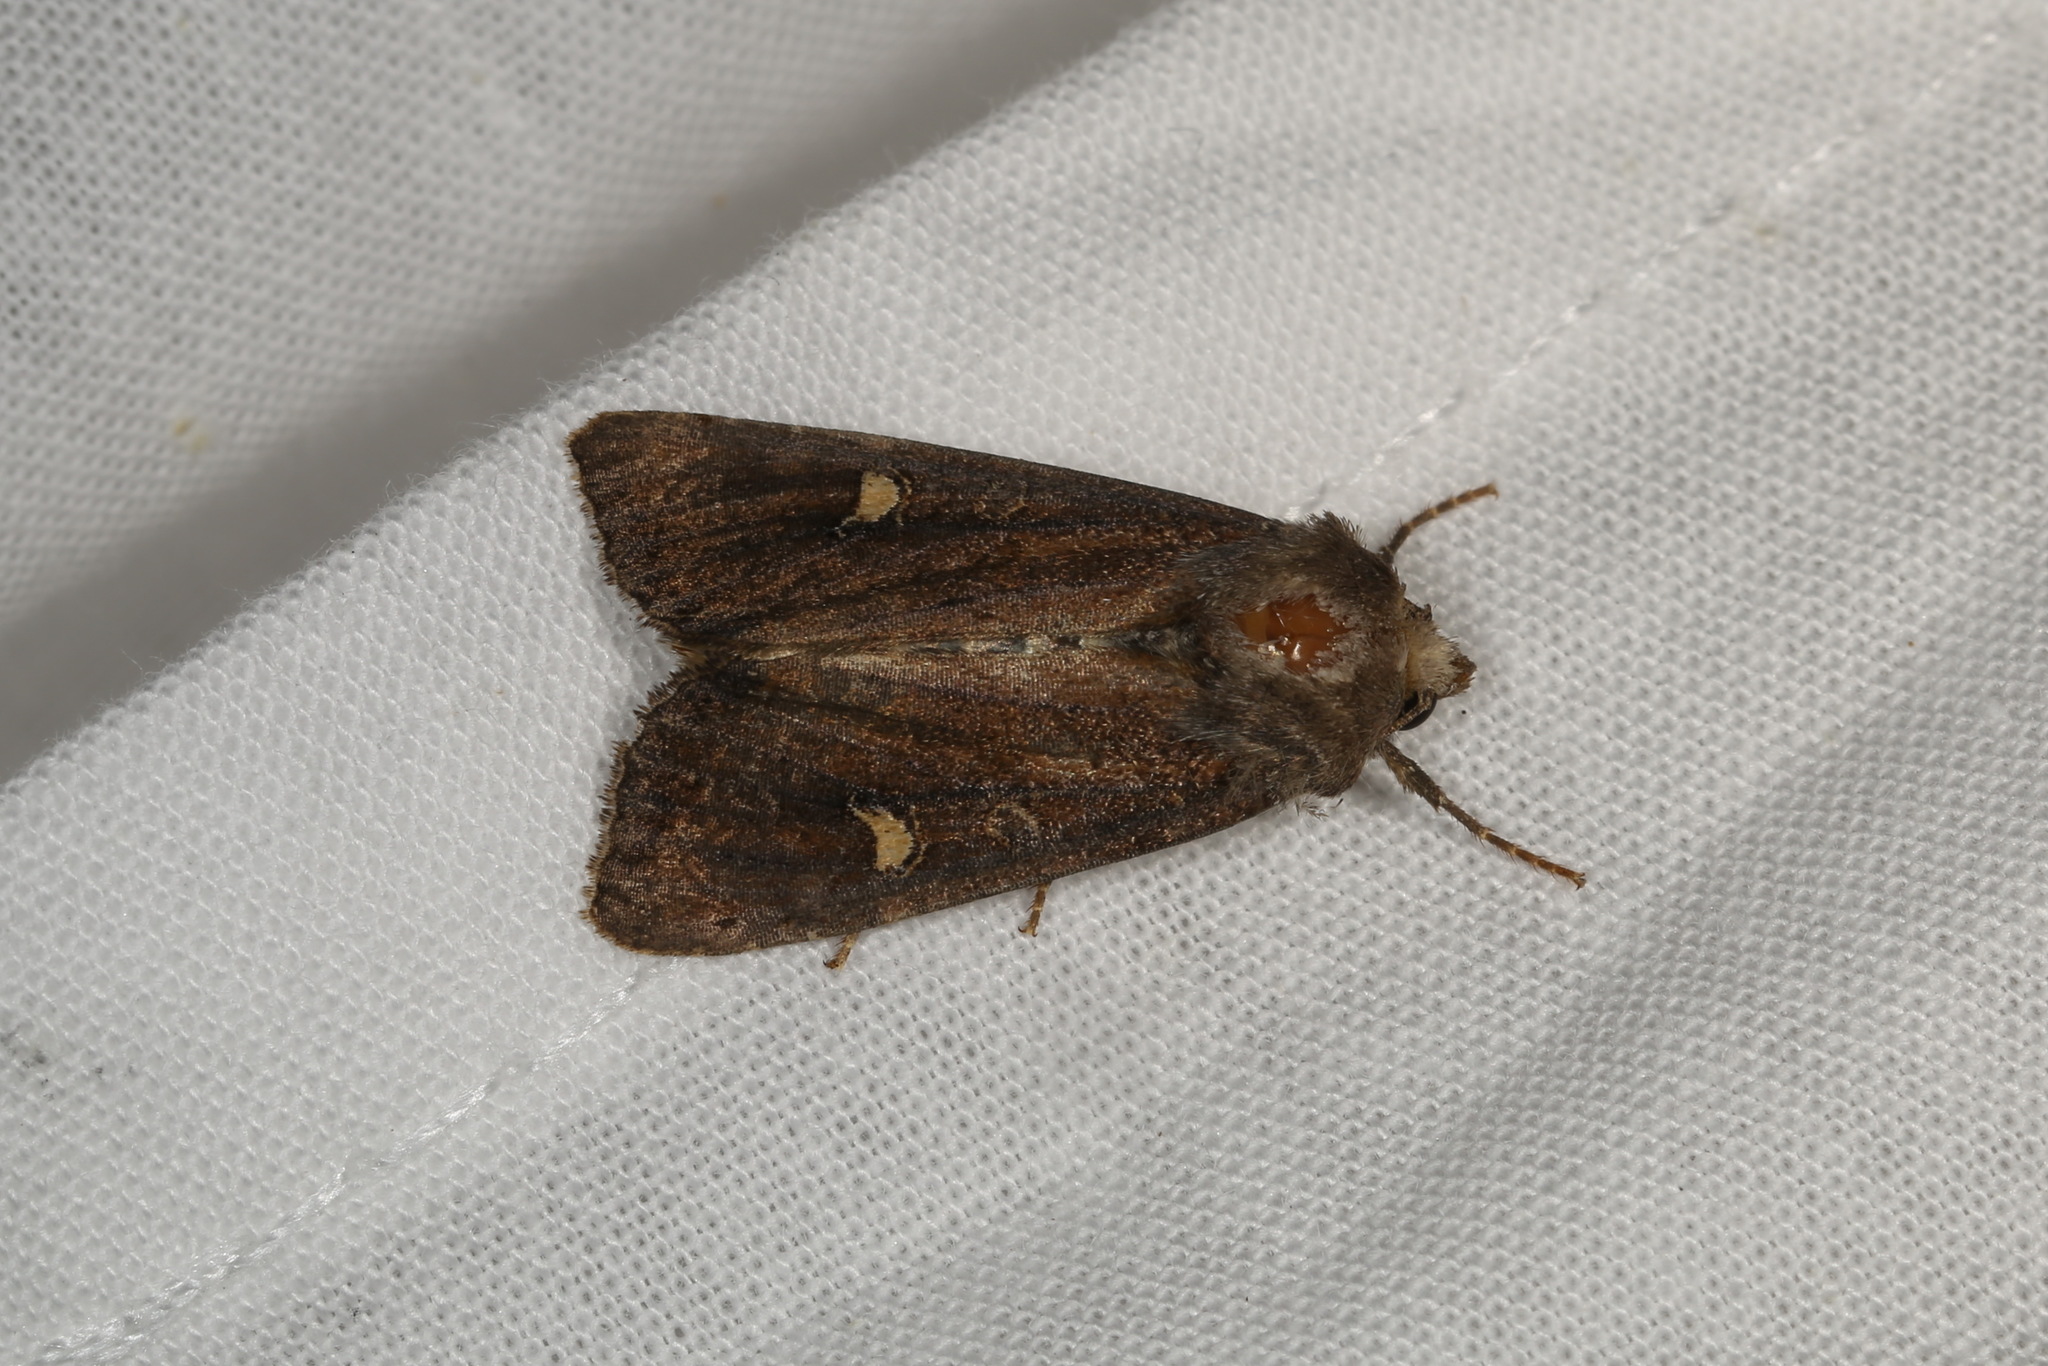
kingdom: Animalia
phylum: Arthropoda
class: Insecta
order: Lepidoptera
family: Noctuidae
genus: Helotropha
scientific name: Helotropha leucostigma
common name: The crescent
